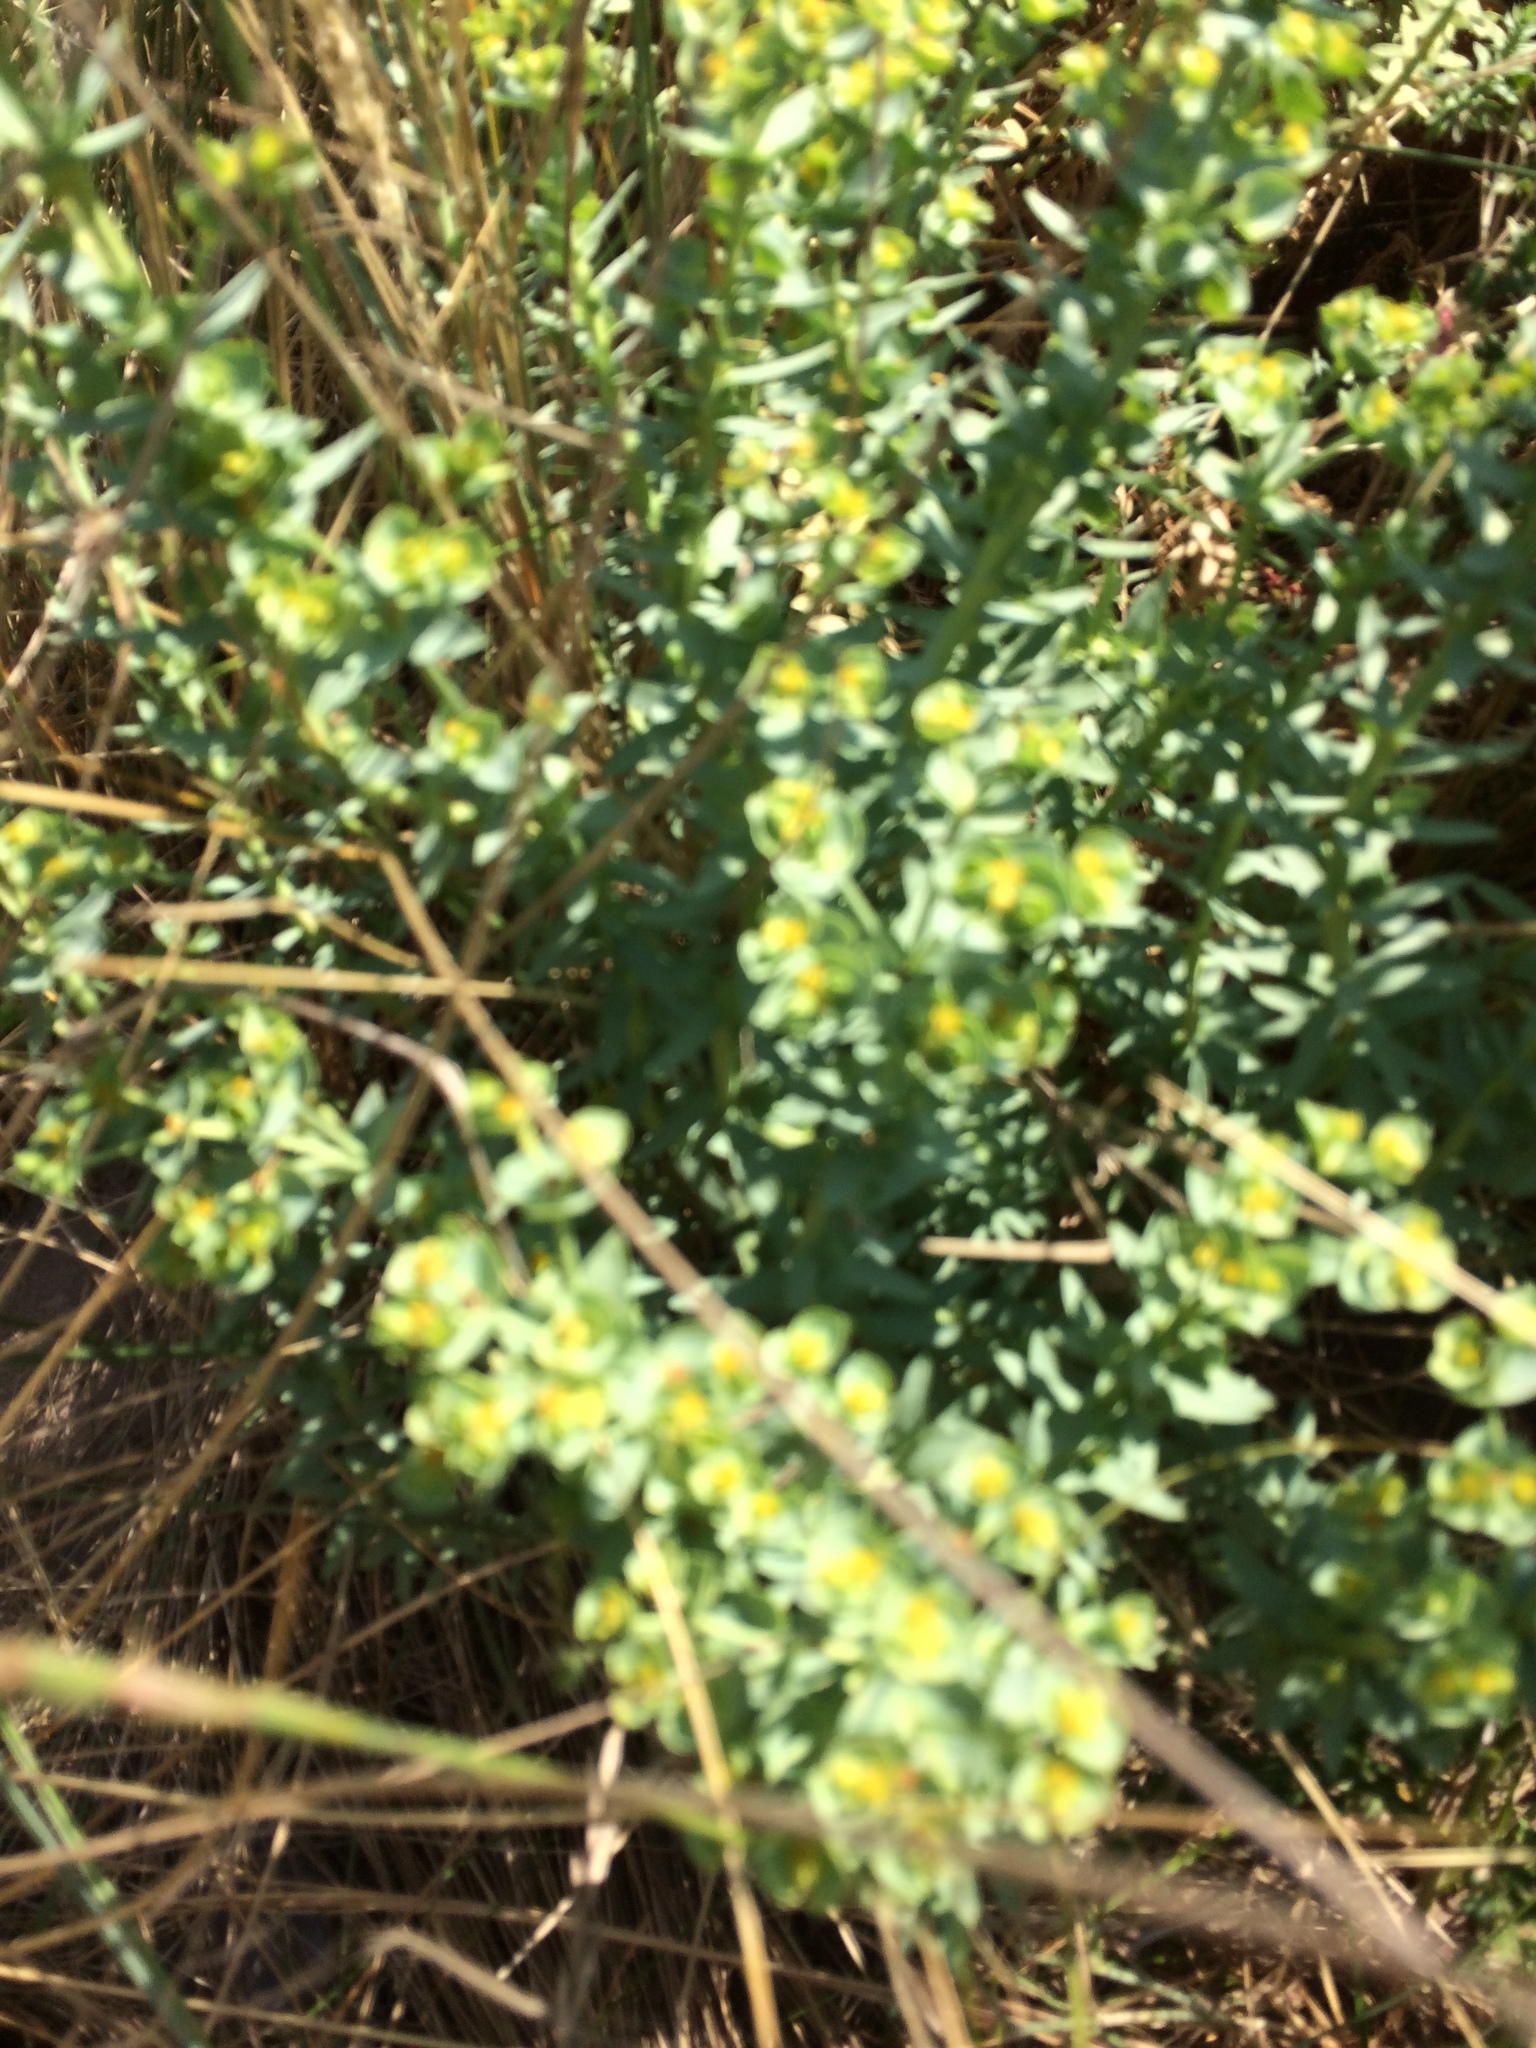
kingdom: Plantae
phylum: Tracheophyta
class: Magnoliopsida
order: Malpighiales
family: Euphorbiaceae
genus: Euphorbia
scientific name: Euphorbia paralias
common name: Sea spurge
